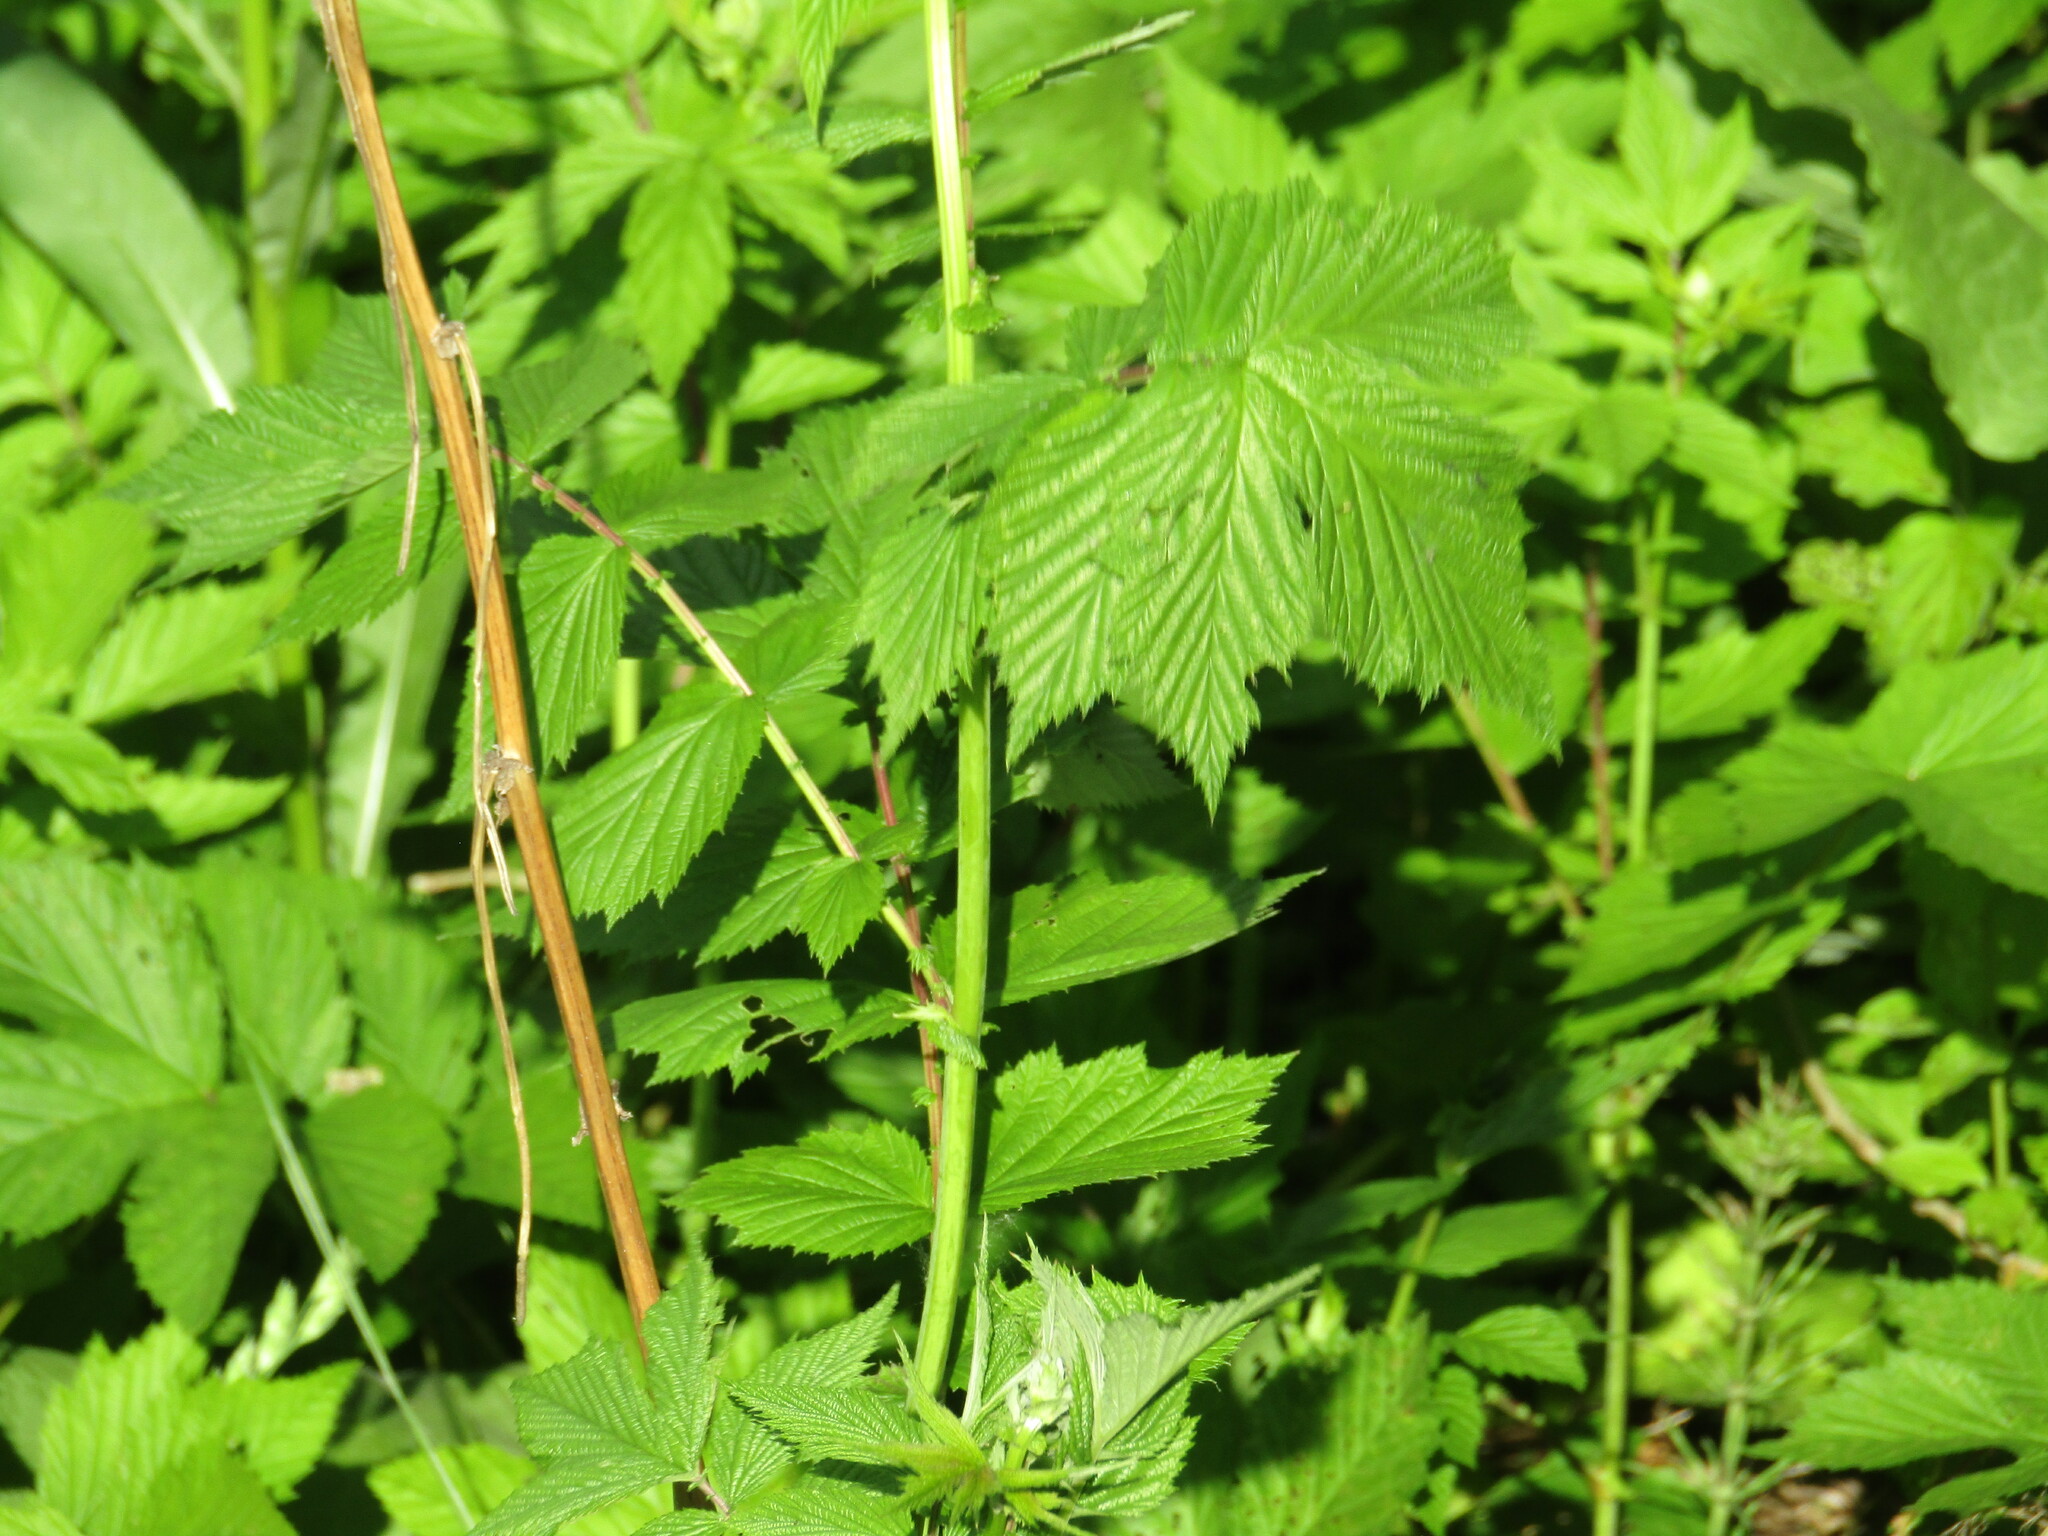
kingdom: Plantae
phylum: Tracheophyta
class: Magnoliopsida
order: Rosales
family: Rosaceae
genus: Filipendula
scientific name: Filipendula ulmaria
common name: Meadowsweet
